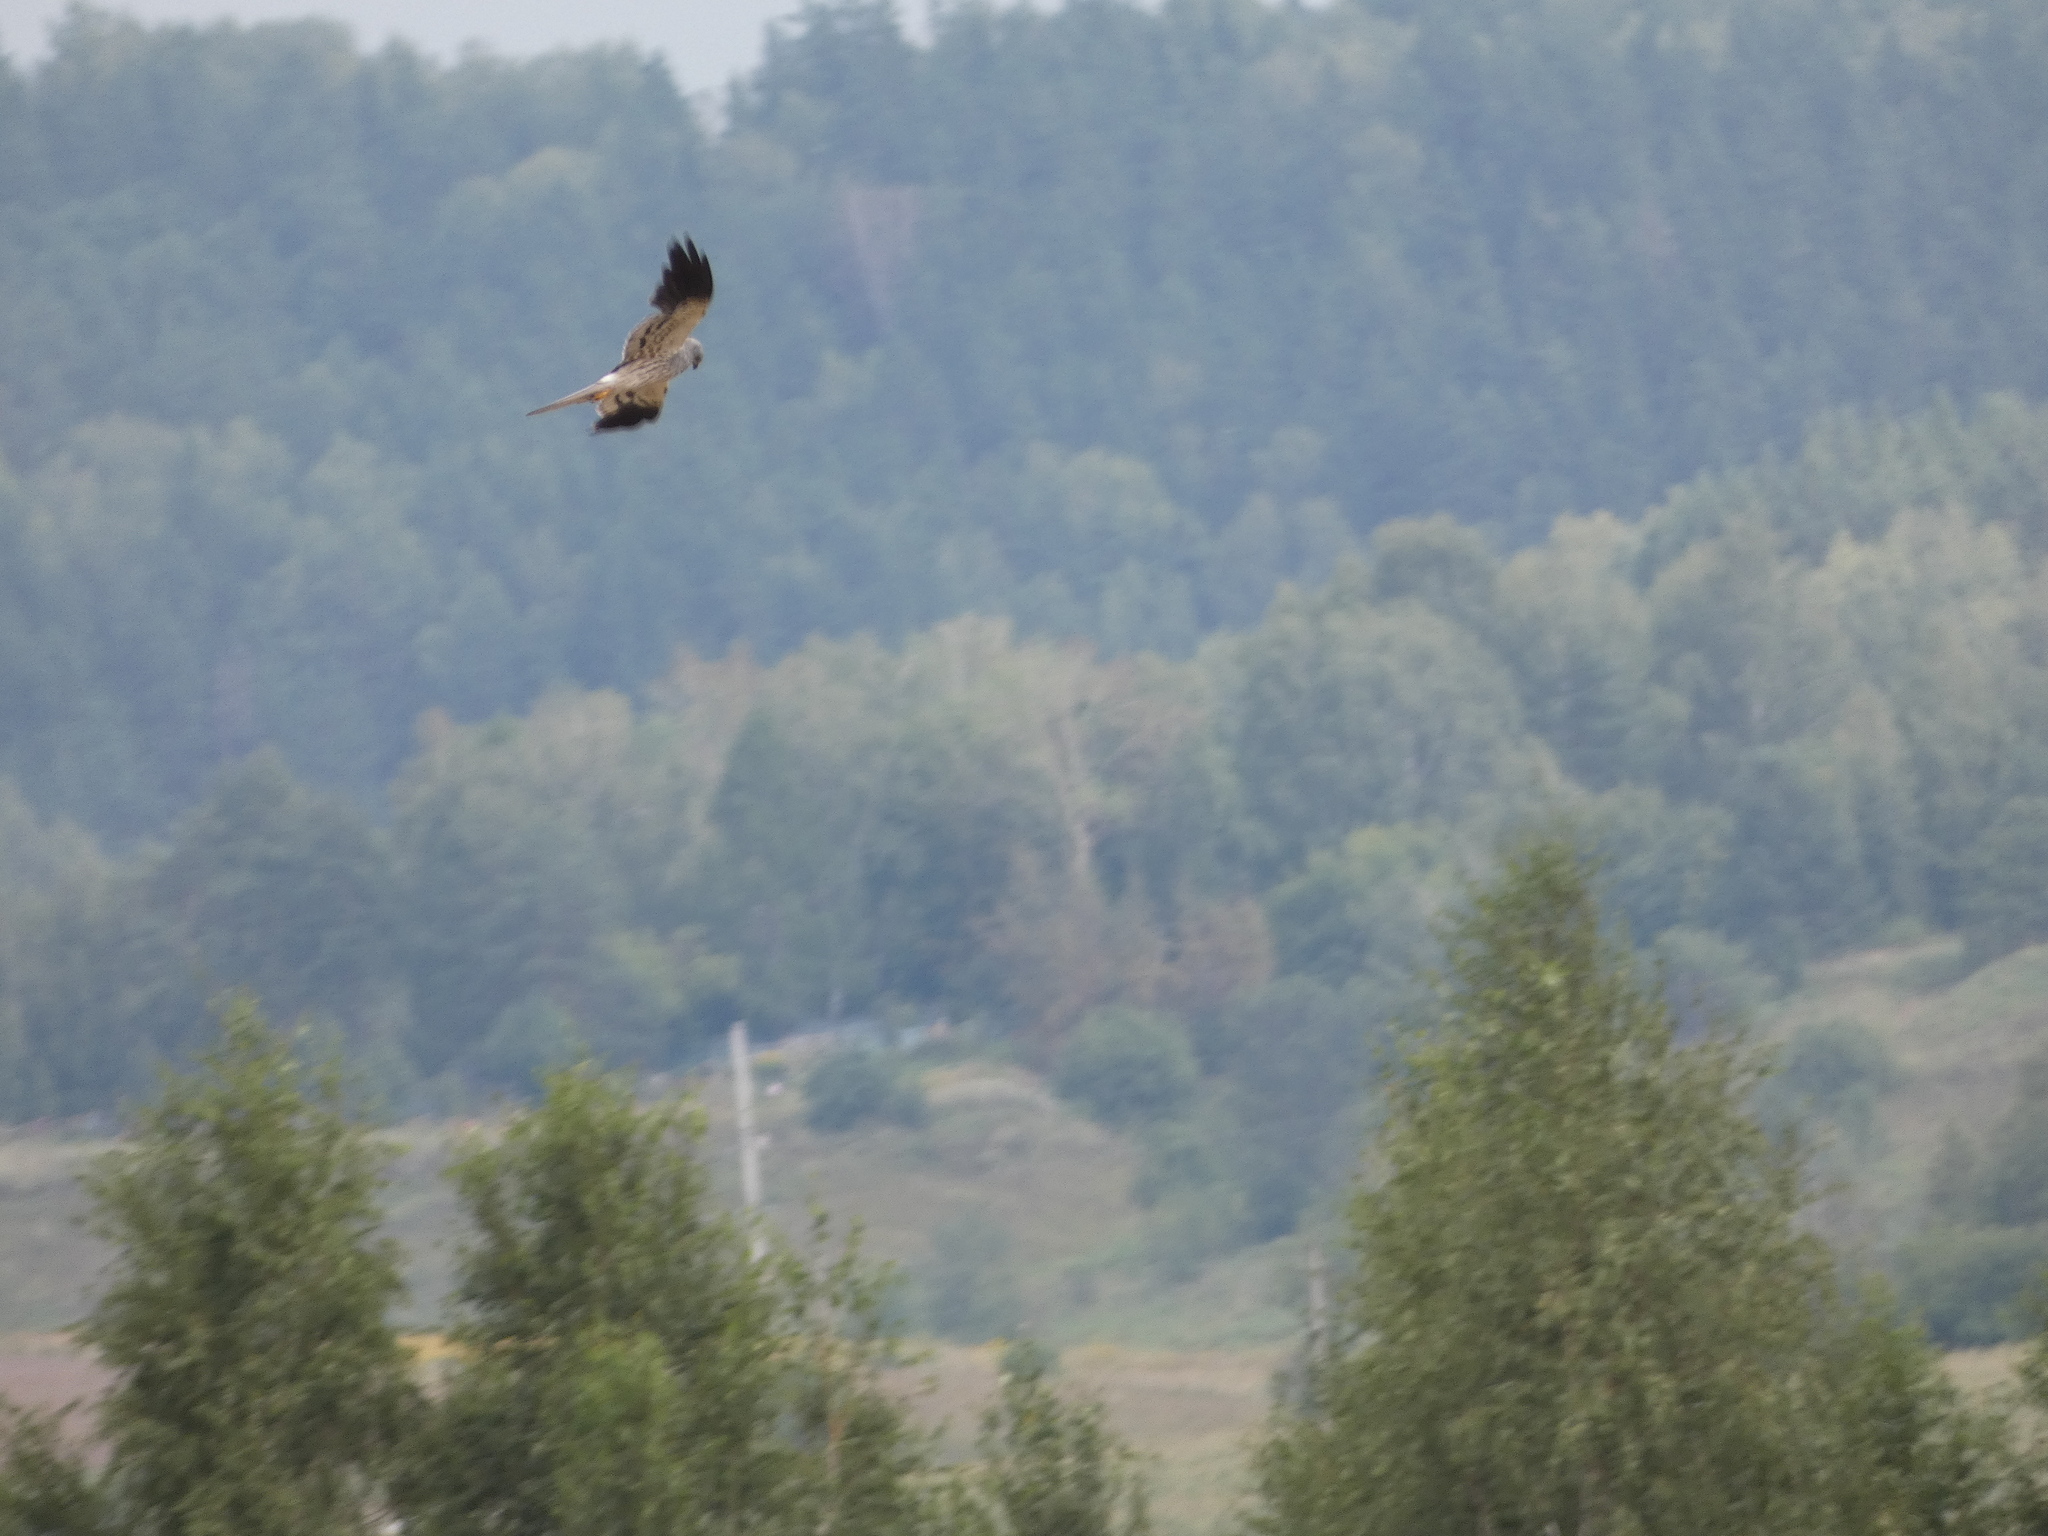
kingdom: Animalia
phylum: Chordata
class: Aves
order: Accipitriformes
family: Accipitridae
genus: Circus
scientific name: Circus pygargus
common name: Montagu's harrier
